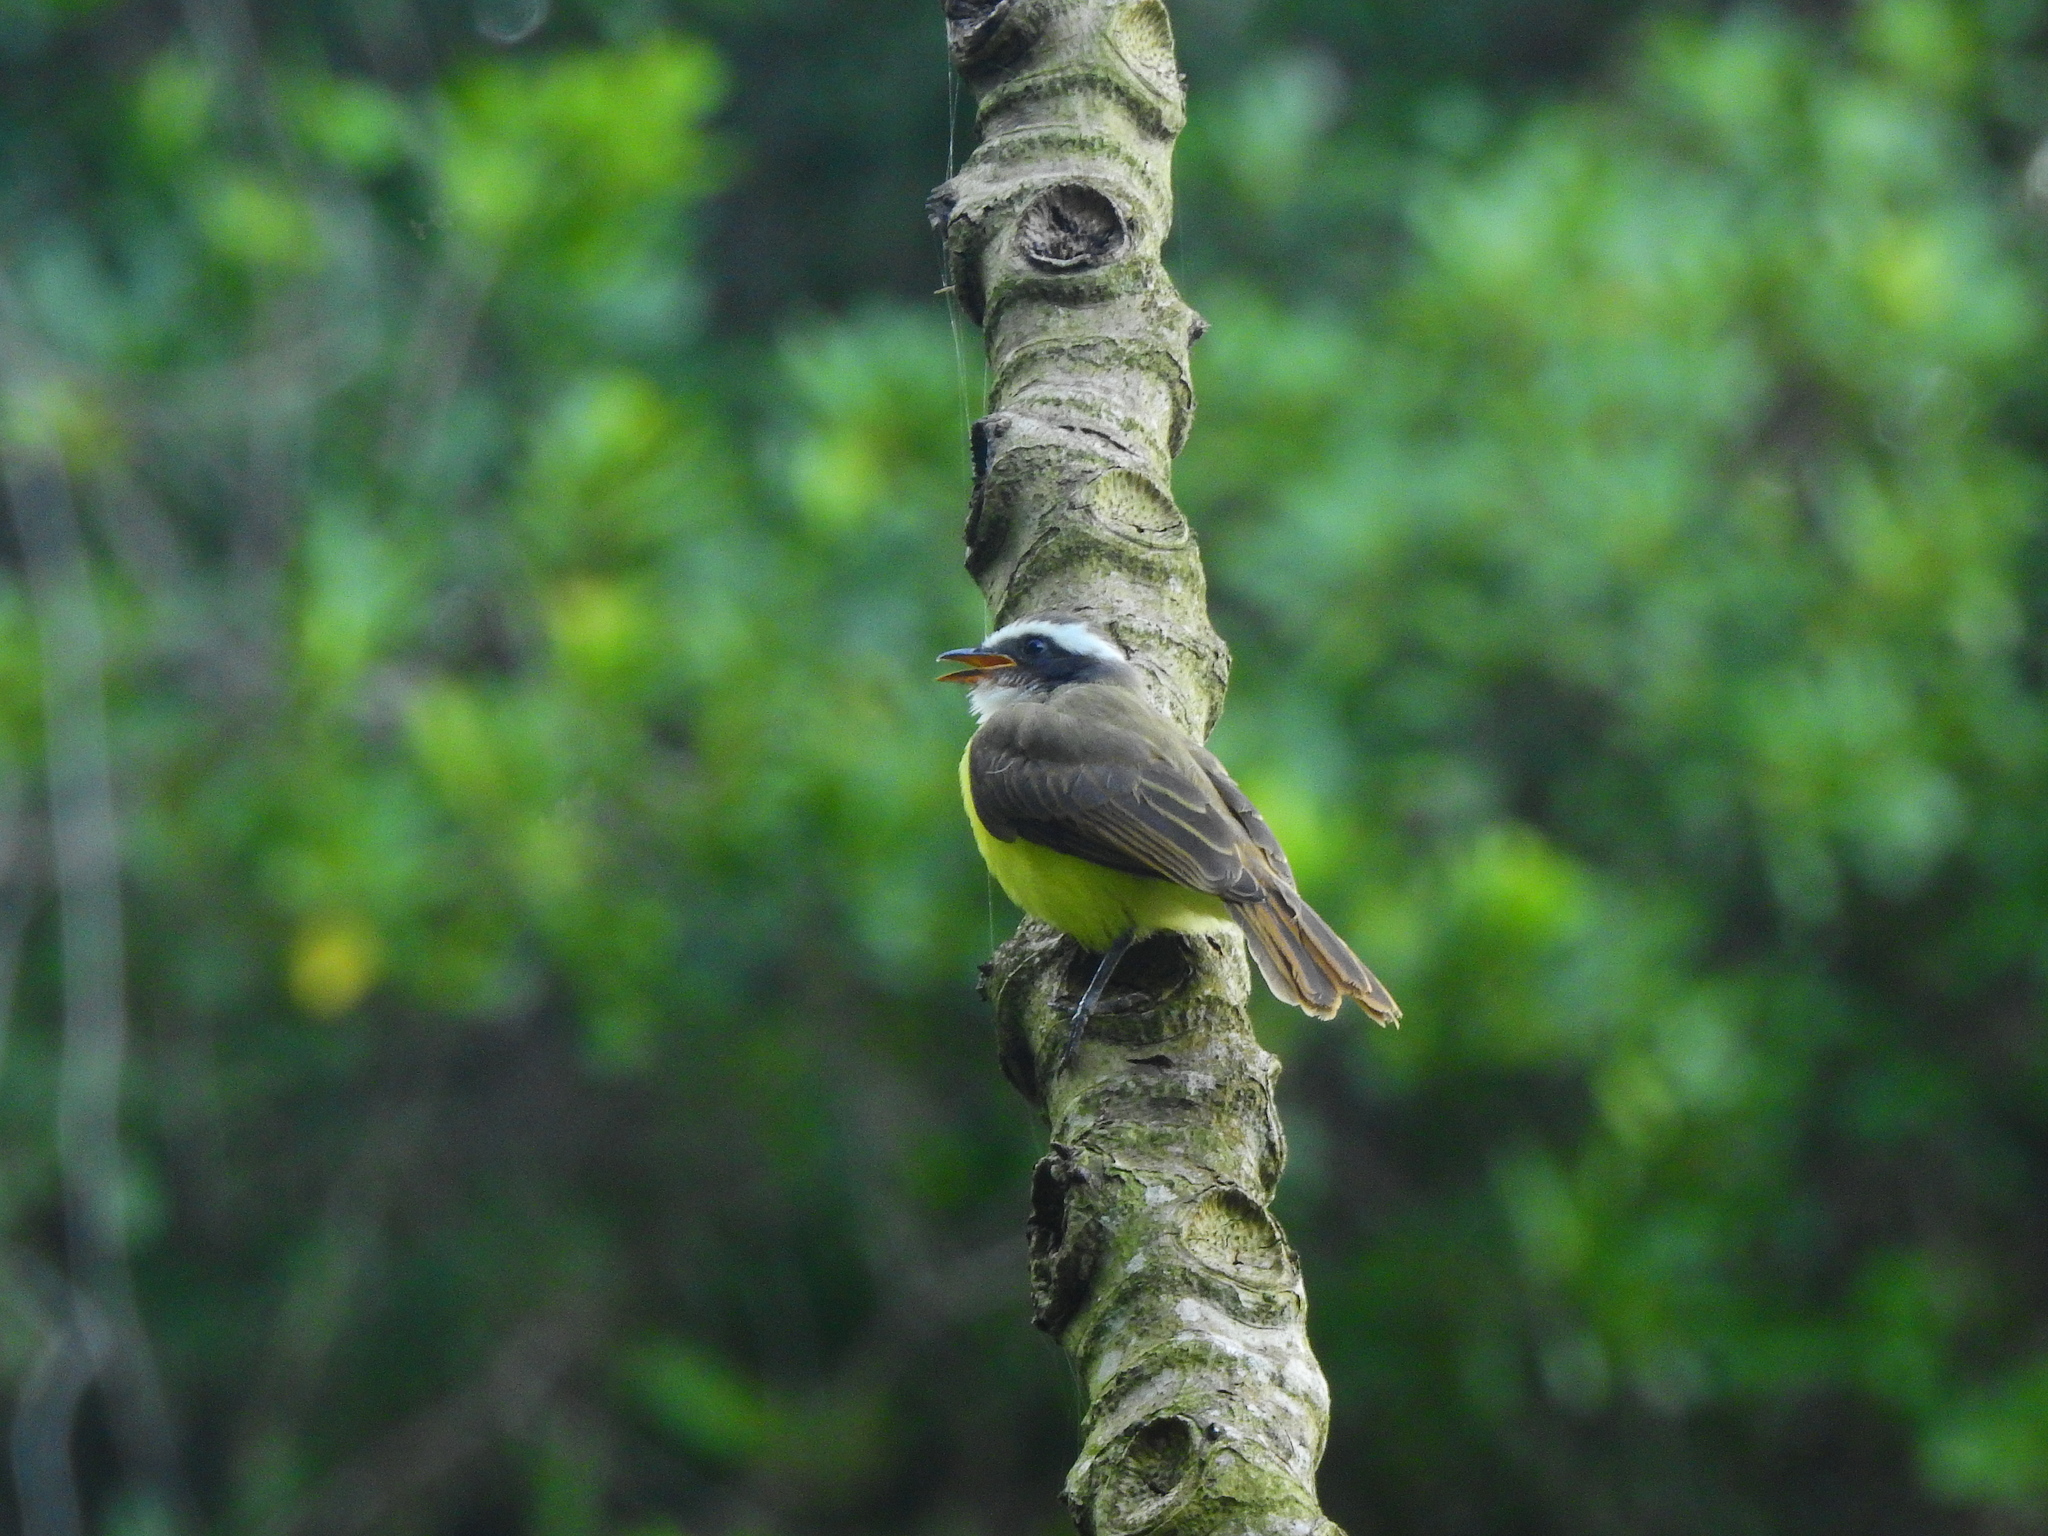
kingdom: Animalia
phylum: Chordata
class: Aves
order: Passeriformes
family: Tyrannidae
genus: Myiozetetes
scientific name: Myiozetetes similis
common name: Social flycatcher
